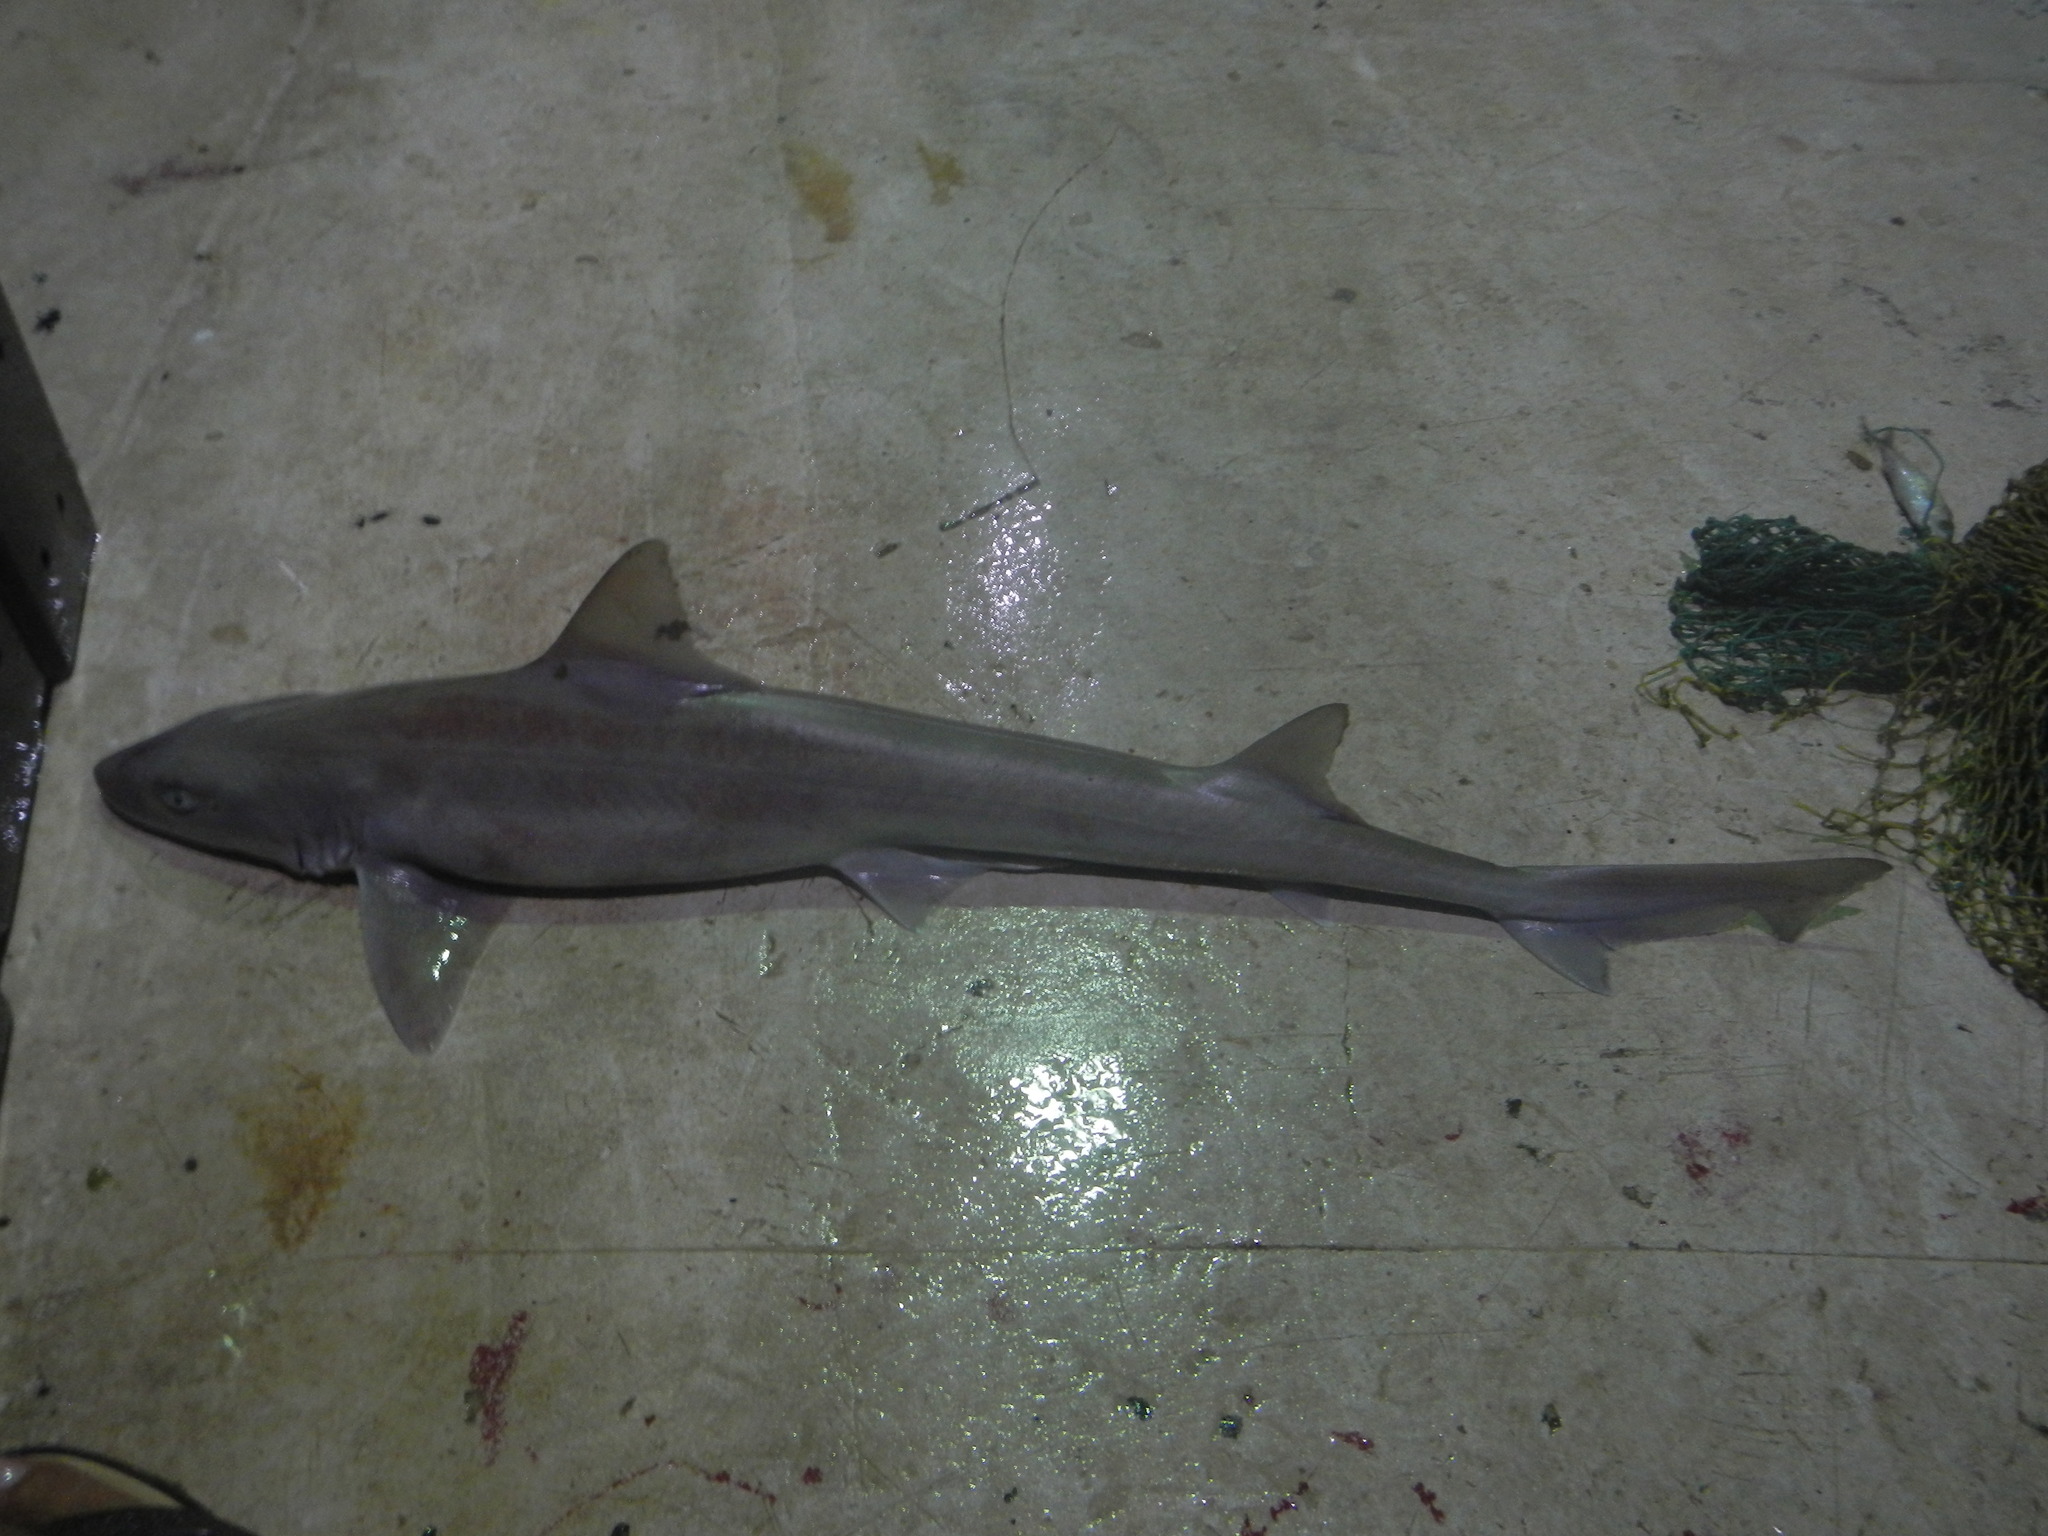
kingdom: Animalia
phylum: Chordata
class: Elasmobranchii
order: Carcharhiniformes
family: Triakidae
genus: Mustelus
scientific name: Mustelus sinusmexicanus
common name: Gulf smoothhound
